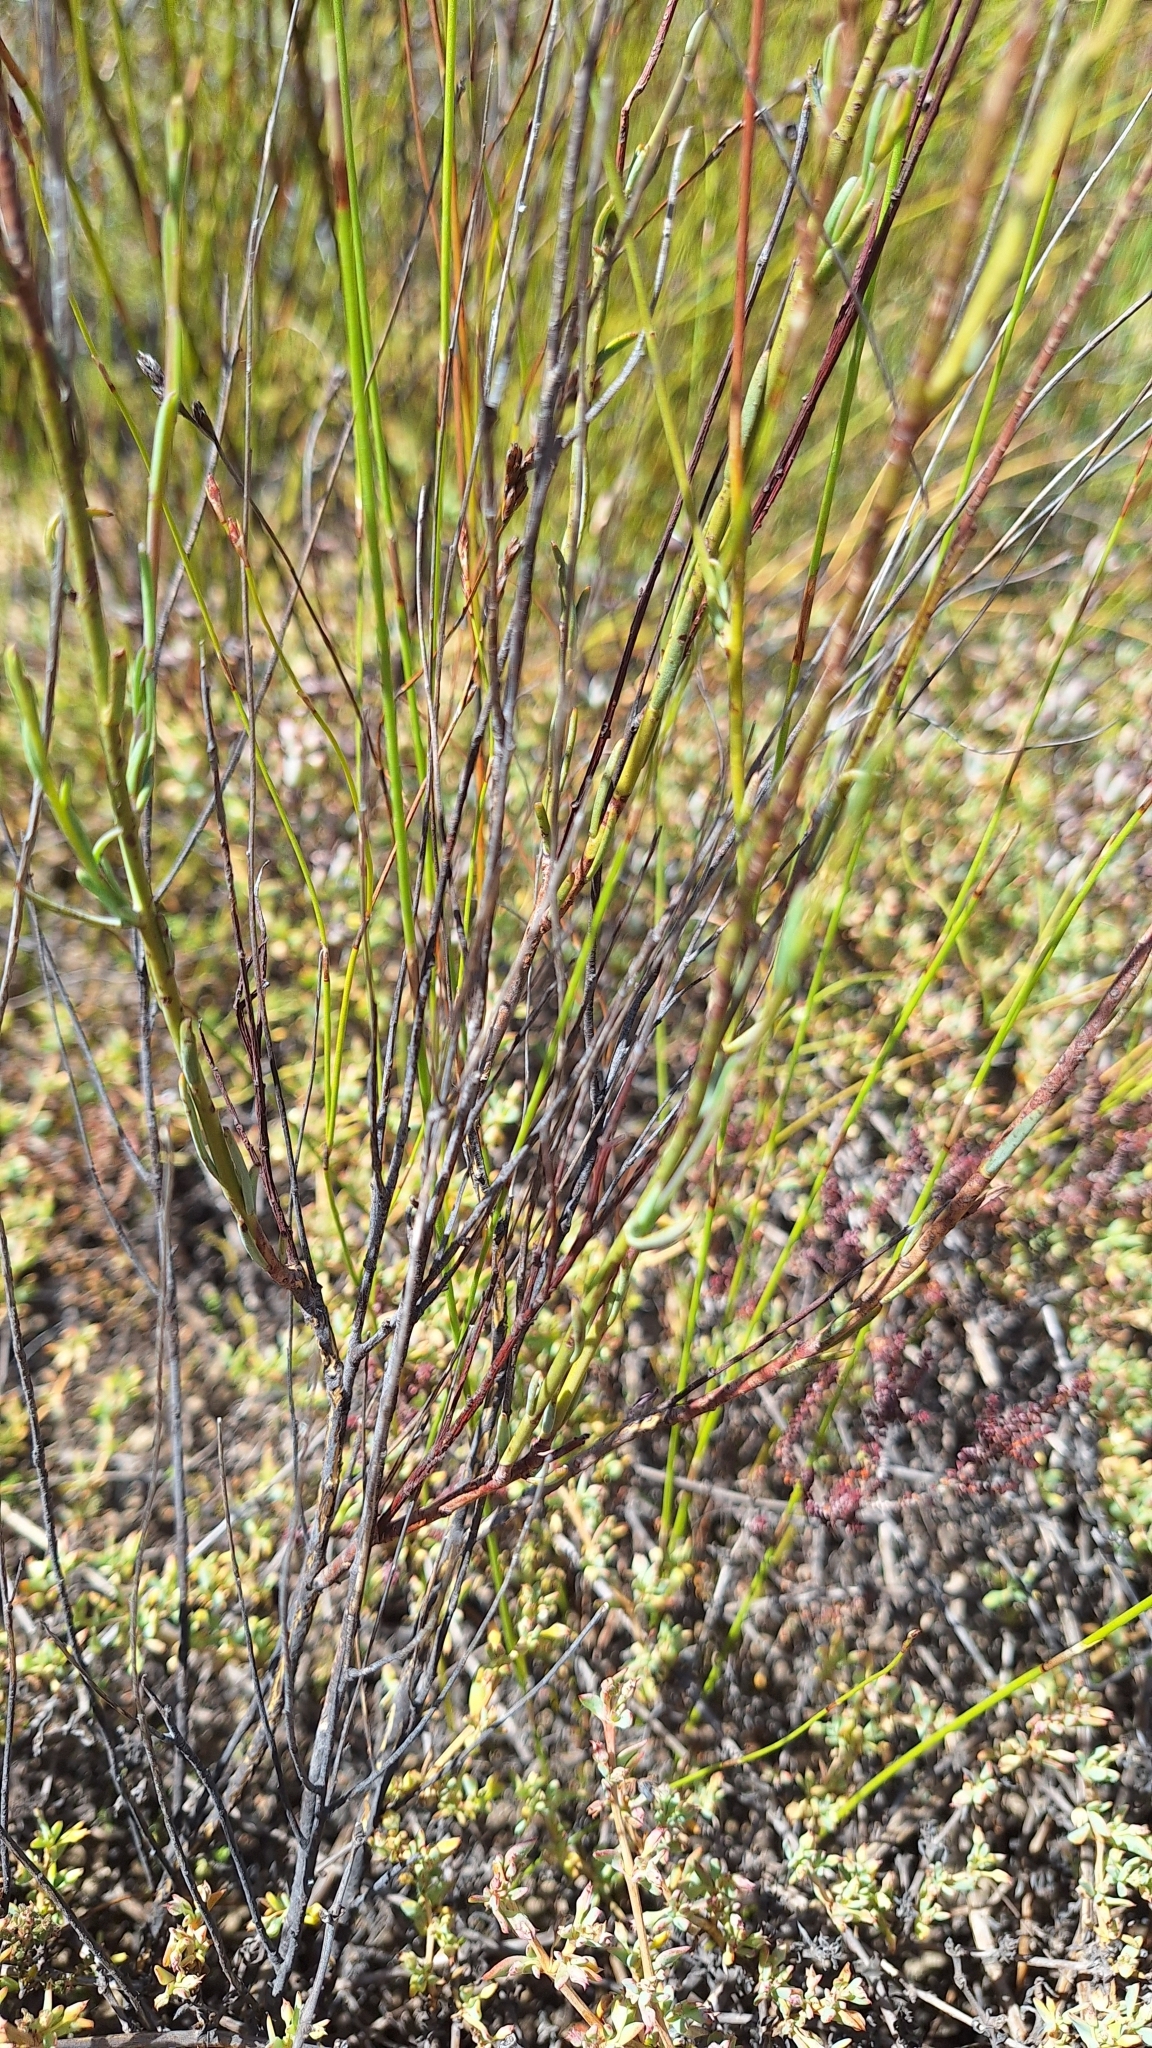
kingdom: Plantae
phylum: Tracheophyta
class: Magnoliopsida
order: Brassicales
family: Brassicaceae
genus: Heliophila
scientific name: Heliophila maraisiana
